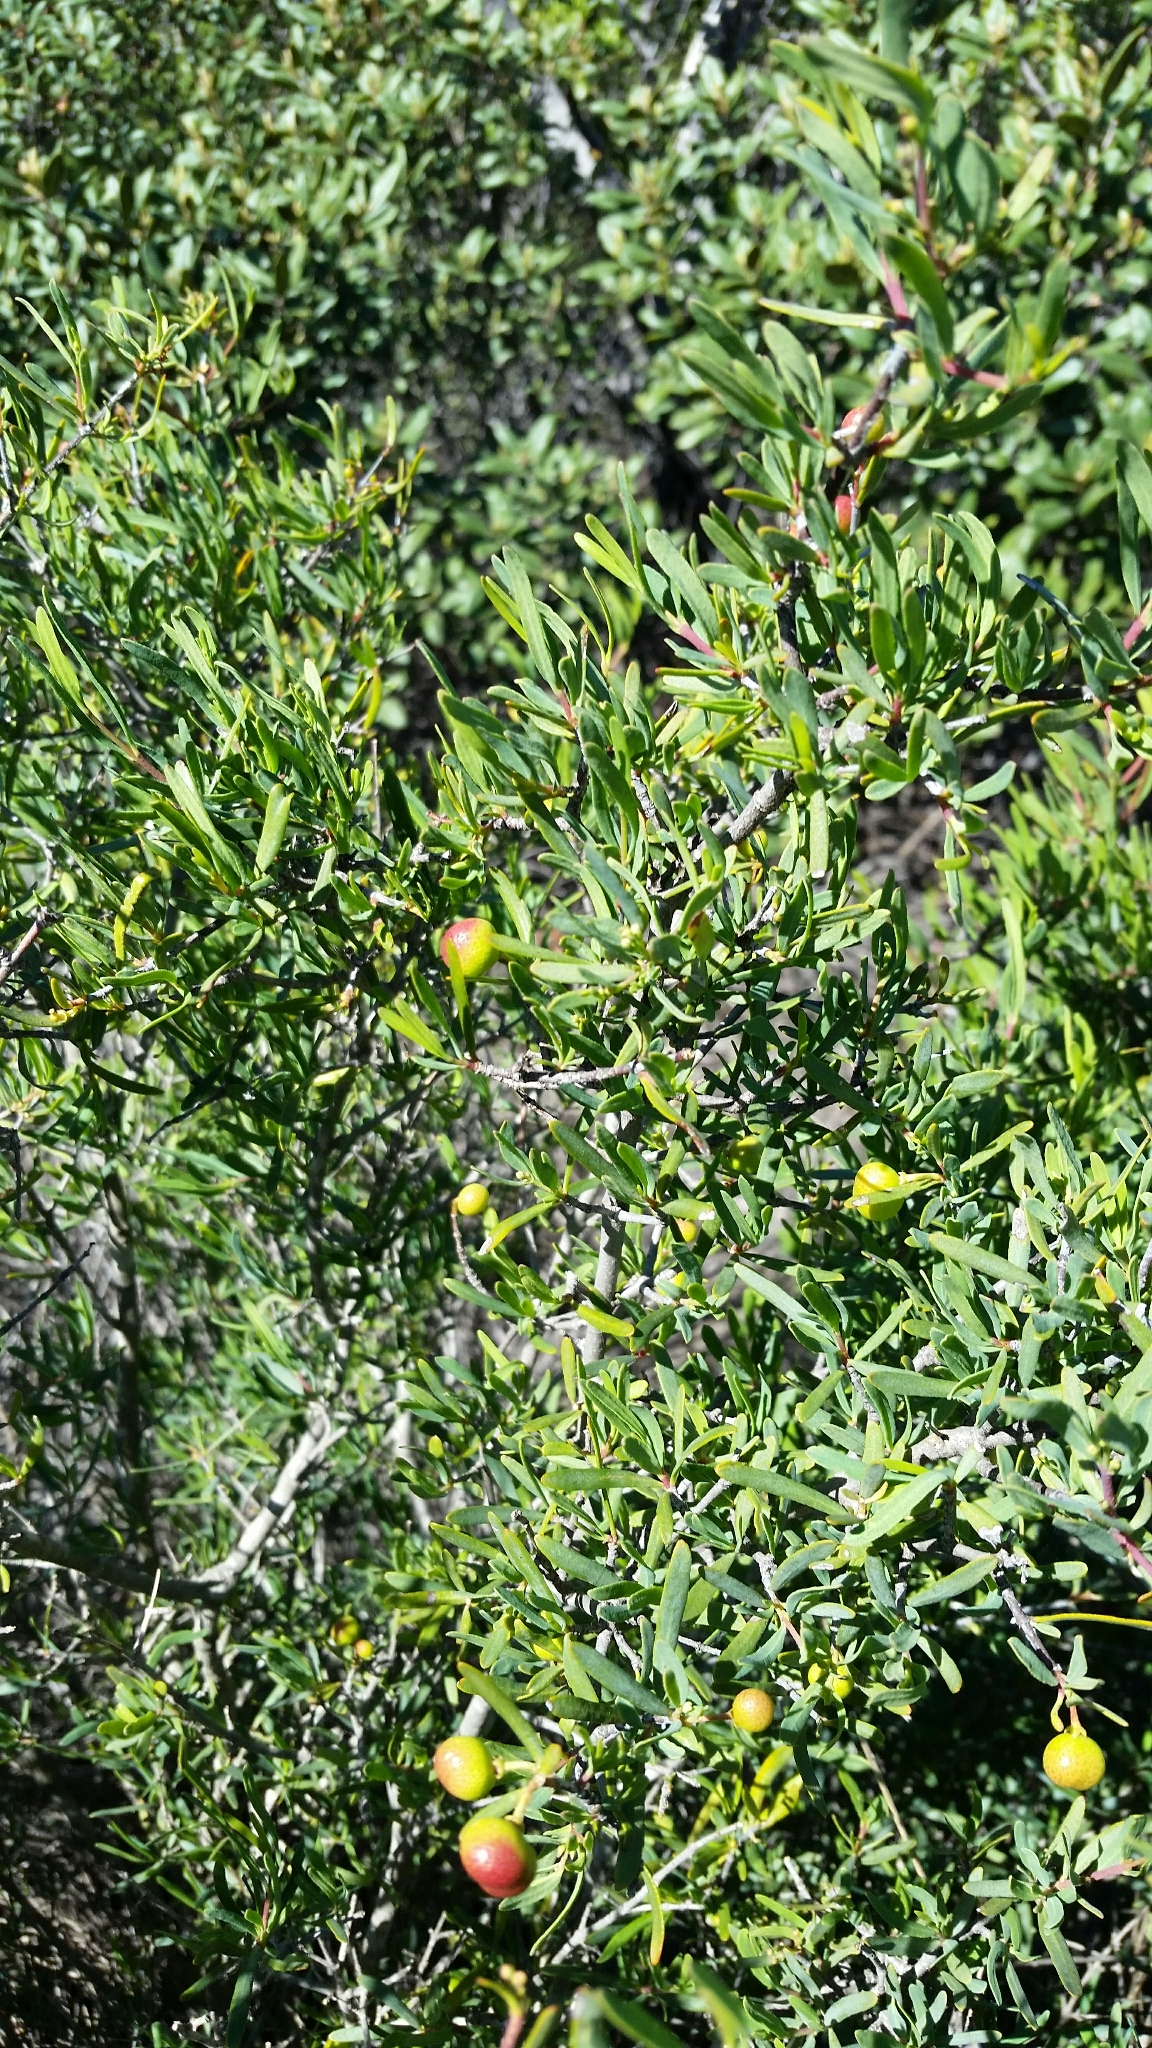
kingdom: Plantae
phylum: Tracheophyta
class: Magnoliopsida
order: Sapindales
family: Rutaceae
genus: Cneoridium
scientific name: Cneoridium dumosum
